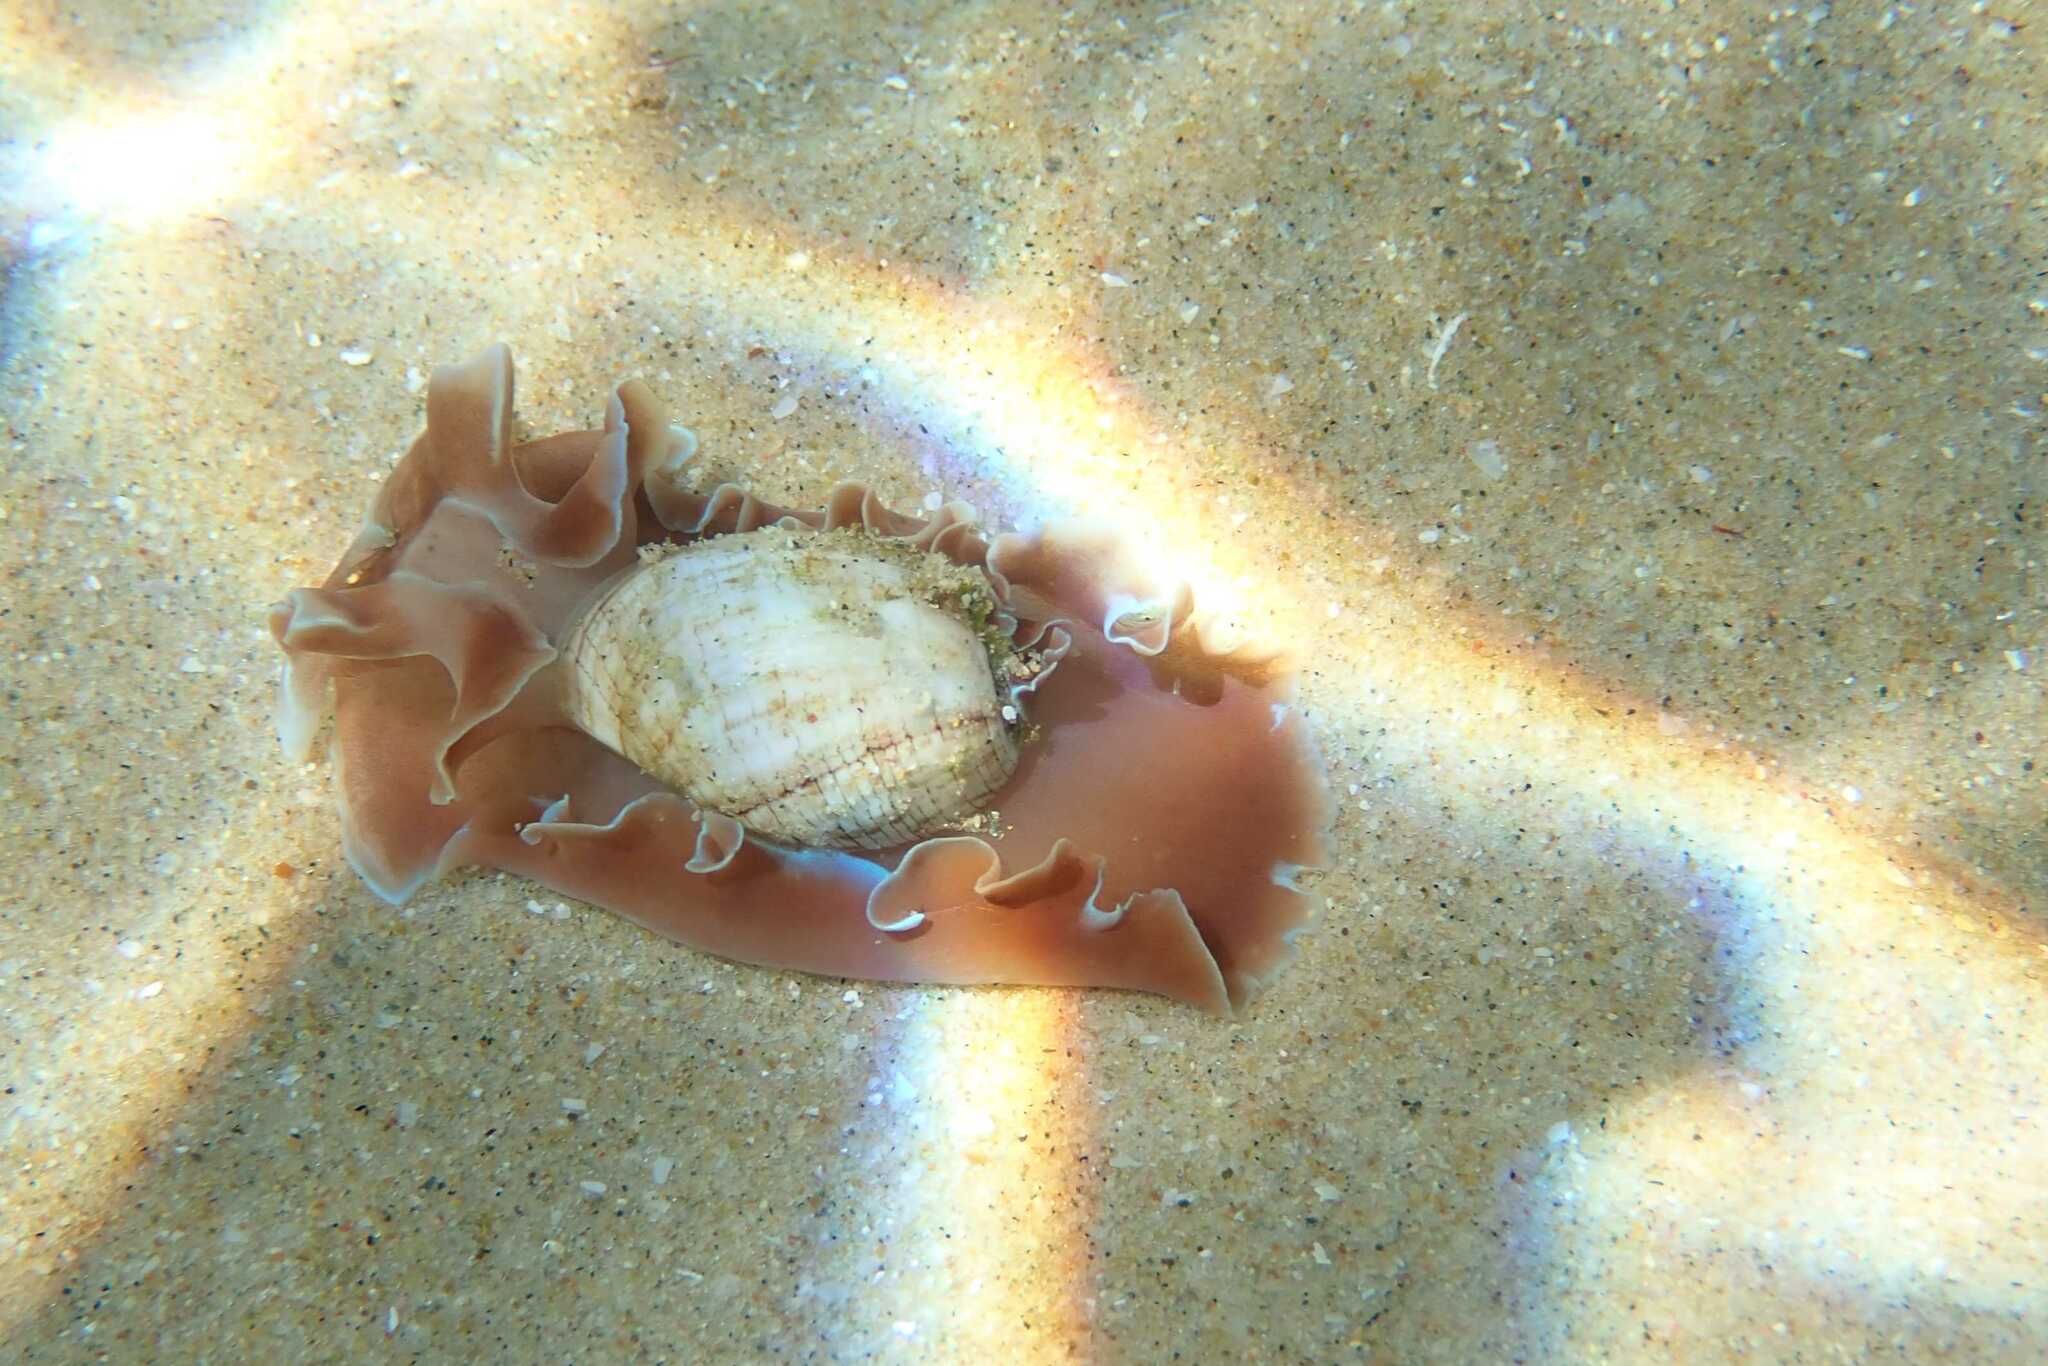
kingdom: Animalia
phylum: Mollusca
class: Gastropoda
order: Cephalaspidea
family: Aplustridae
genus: Hydatina
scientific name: Hydatina physis
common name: Brown-line paperbubble
